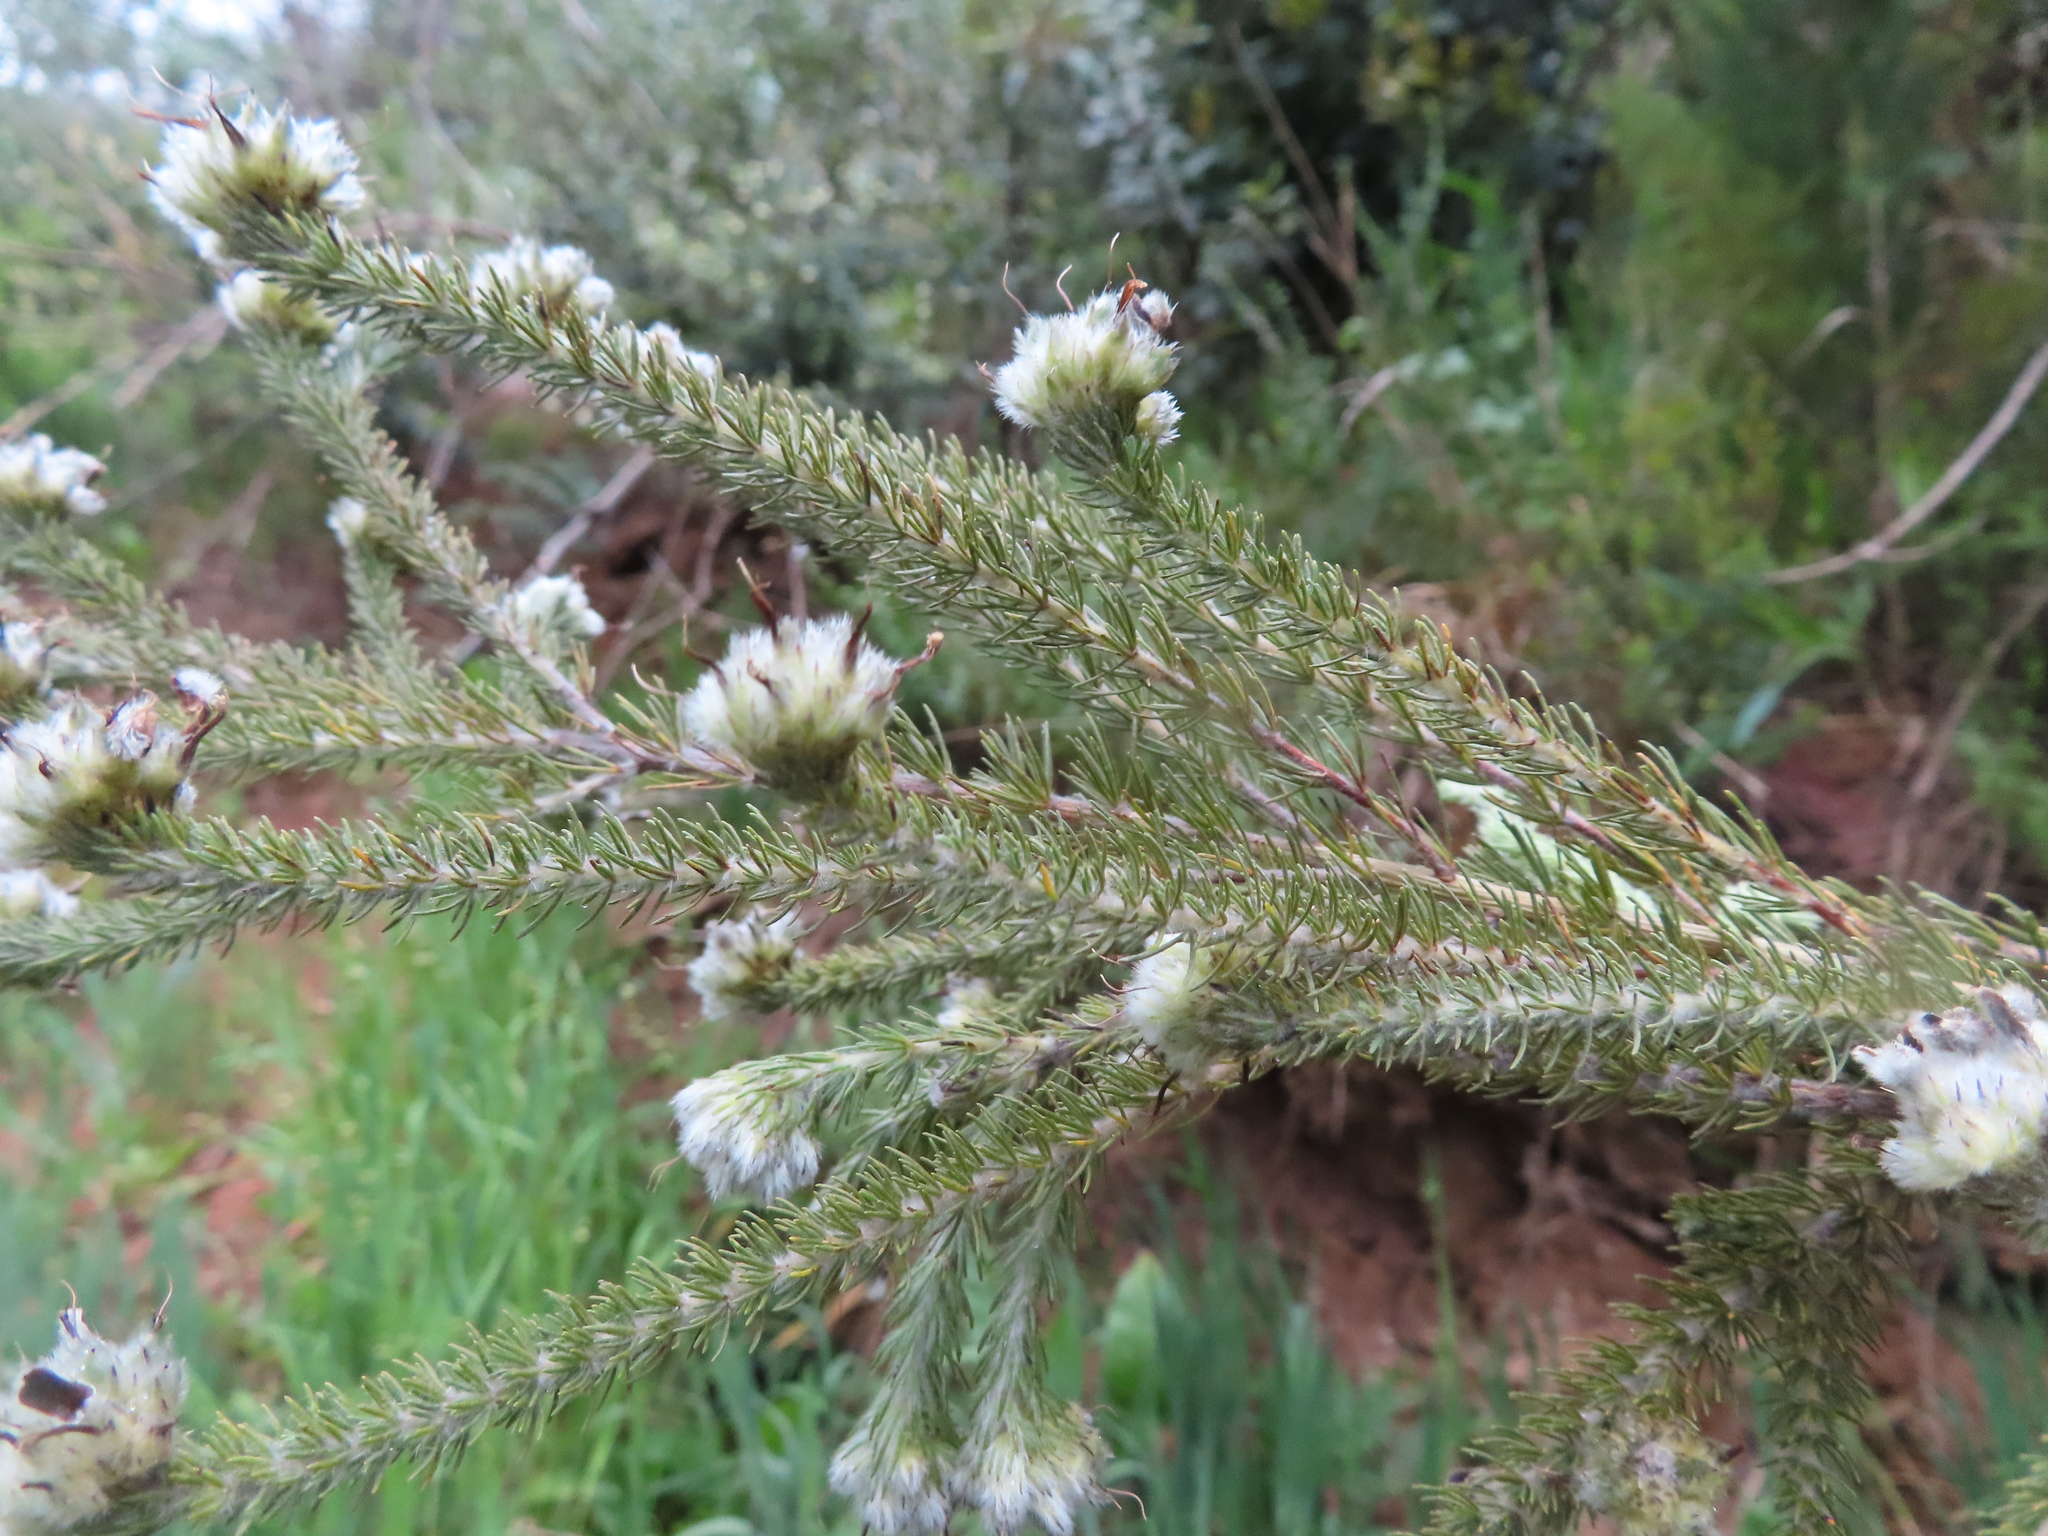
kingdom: Plantae
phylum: Tracheophyta
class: Magnoliopsida
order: Fabales
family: Fabaceae
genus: Aspalathus
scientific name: Aspalathus globosa
